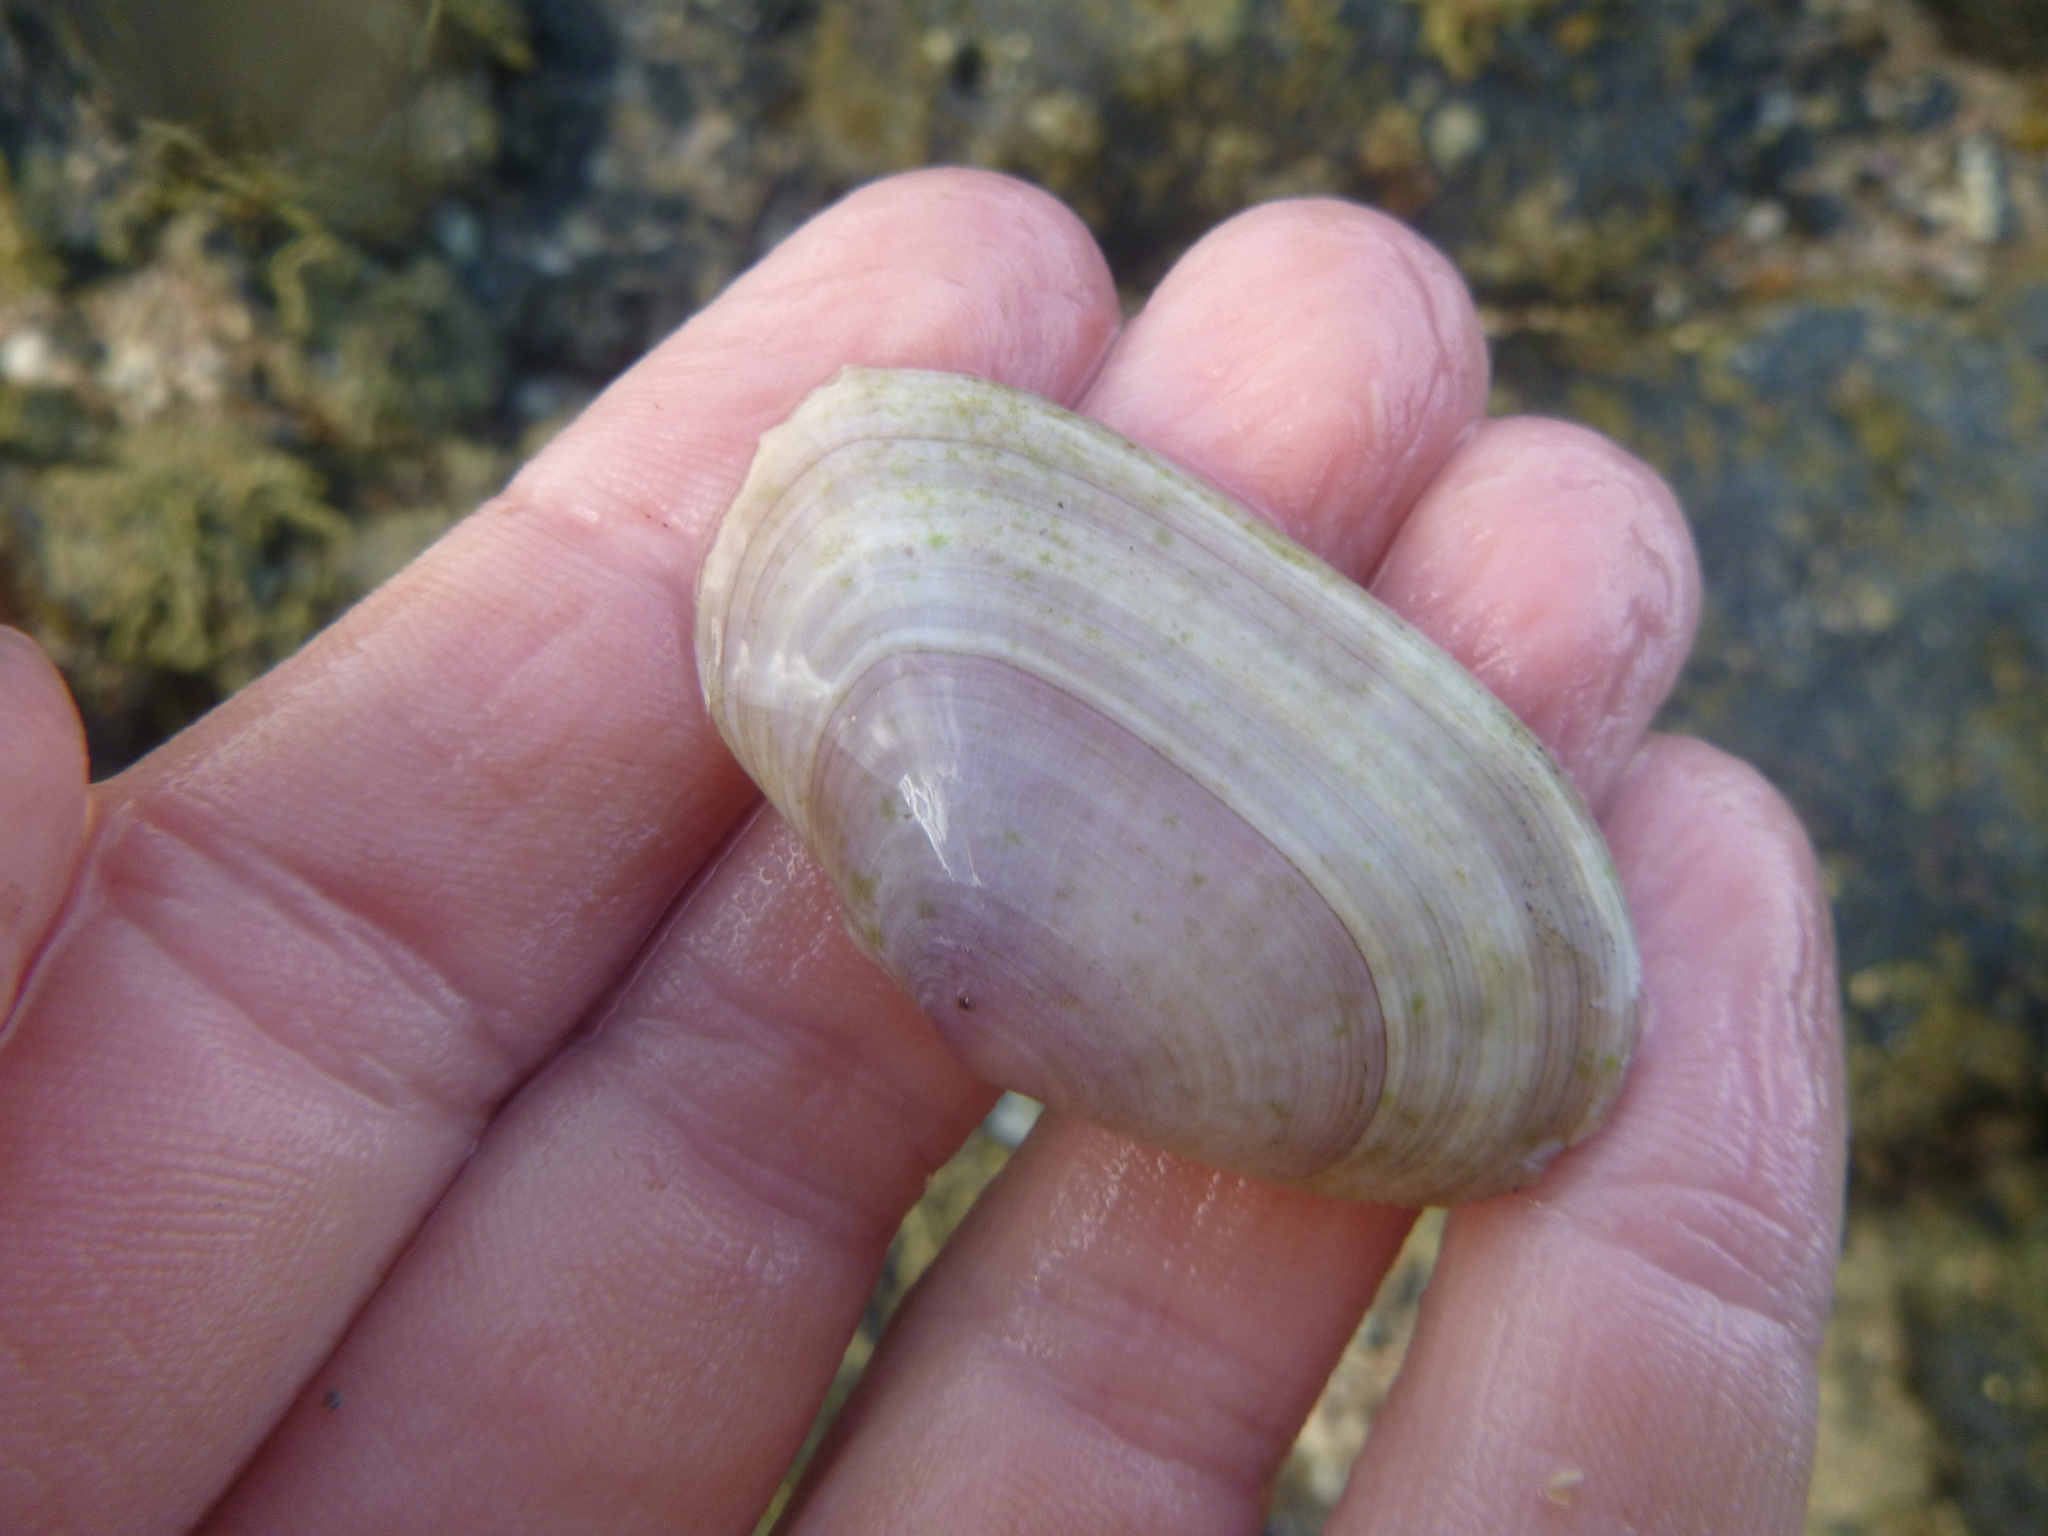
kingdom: Animalia
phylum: Mollusca
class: Bivalvia
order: Cardiida
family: Psammobiidae
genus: Gari
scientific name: Gari stangeri
